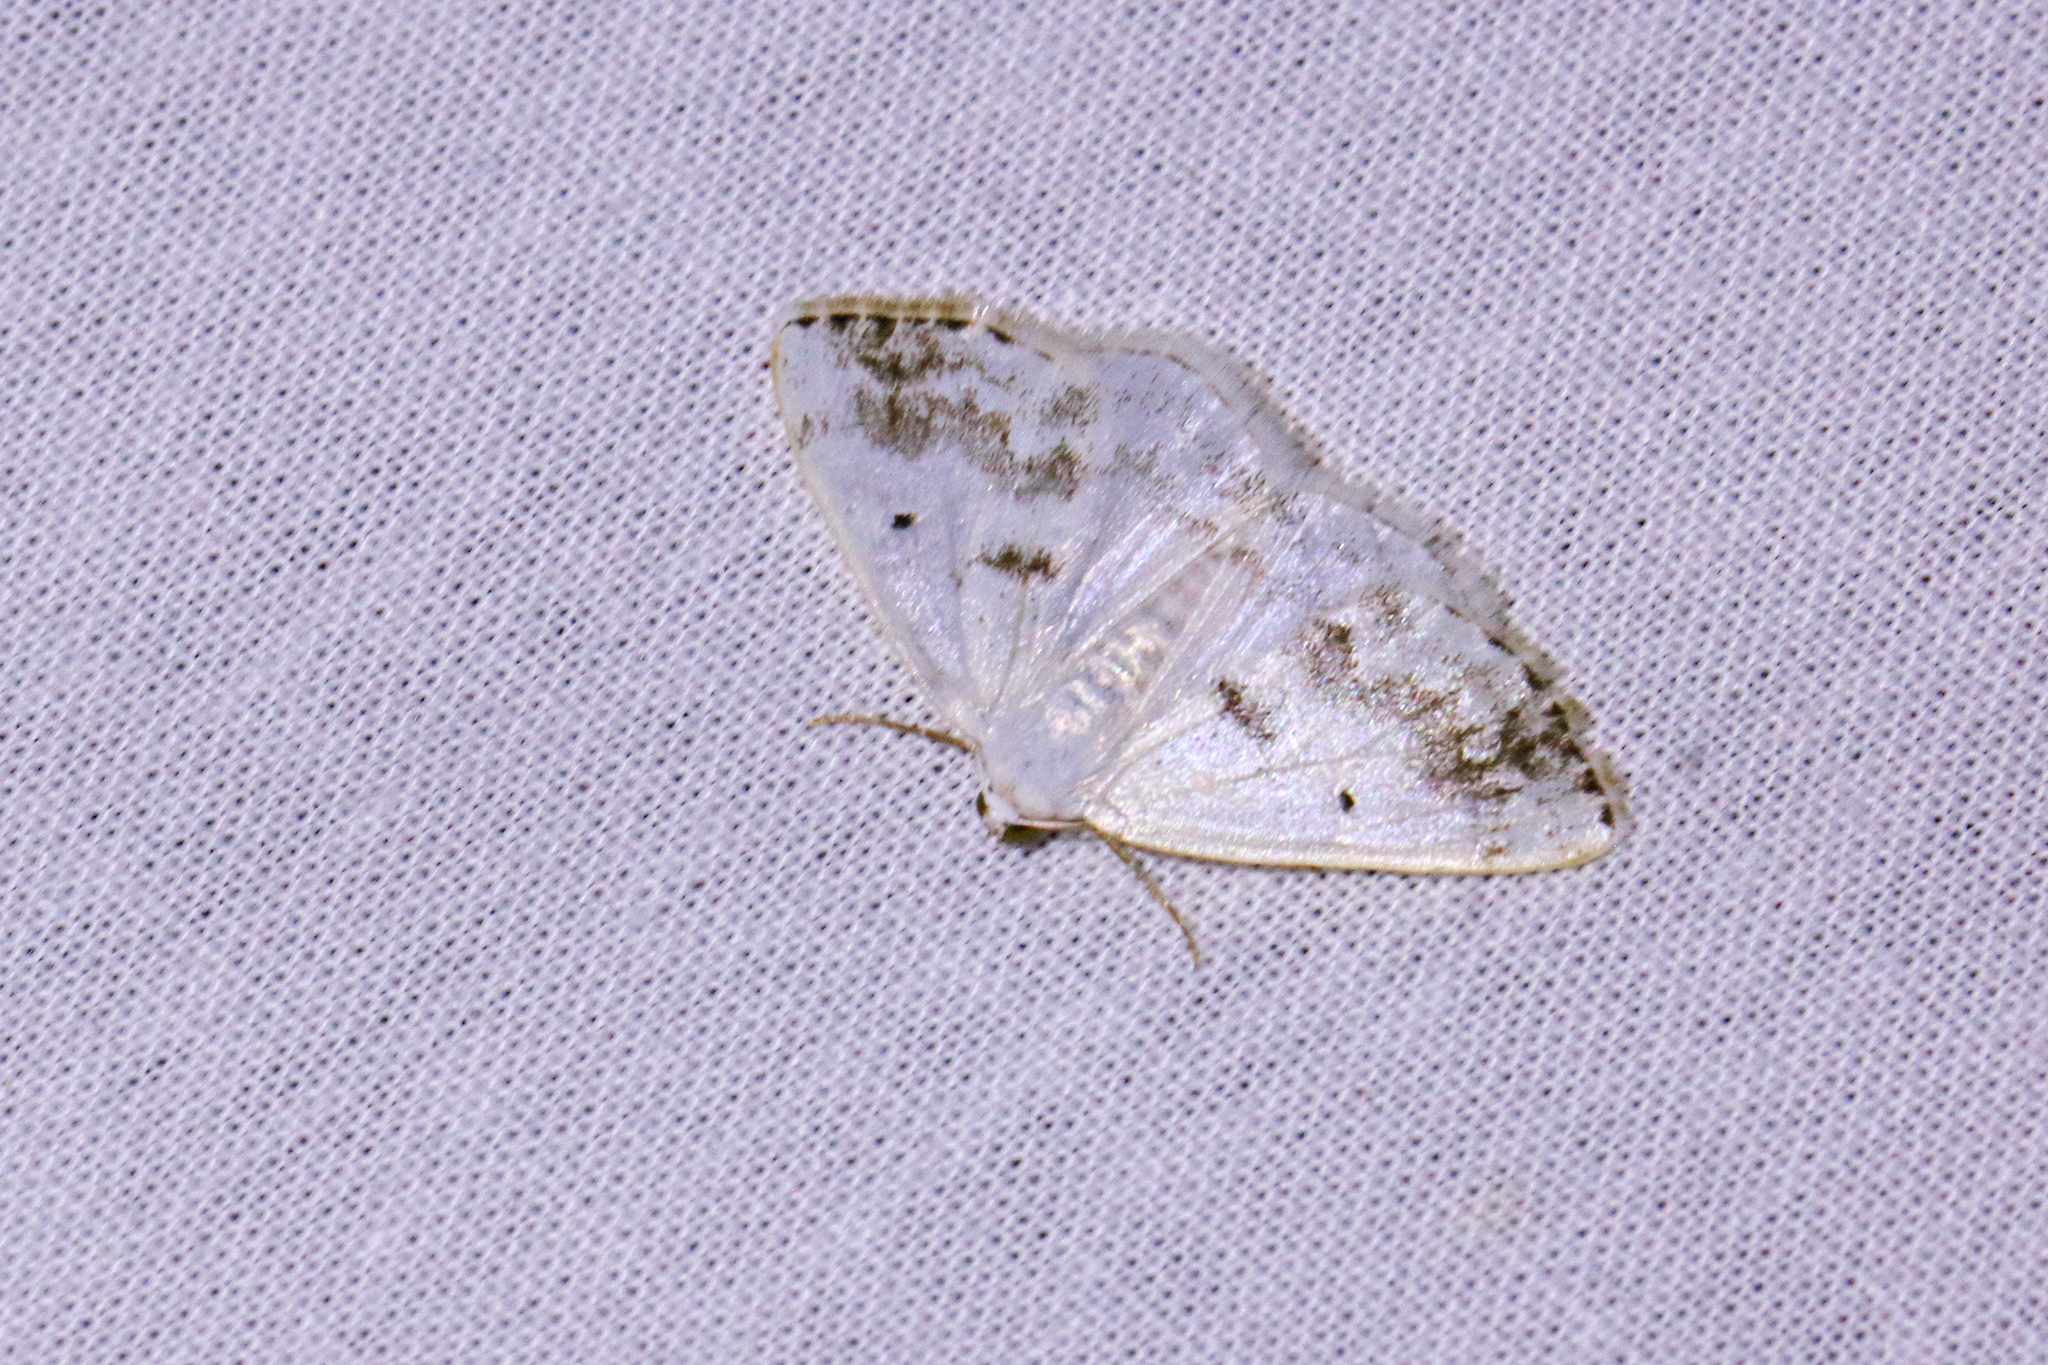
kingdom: Animalia
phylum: Arthropoda
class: Insecta
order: Lepidoptera
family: Geometridae
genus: Lomographa
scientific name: Lomographa temerata
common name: Clouded silver
